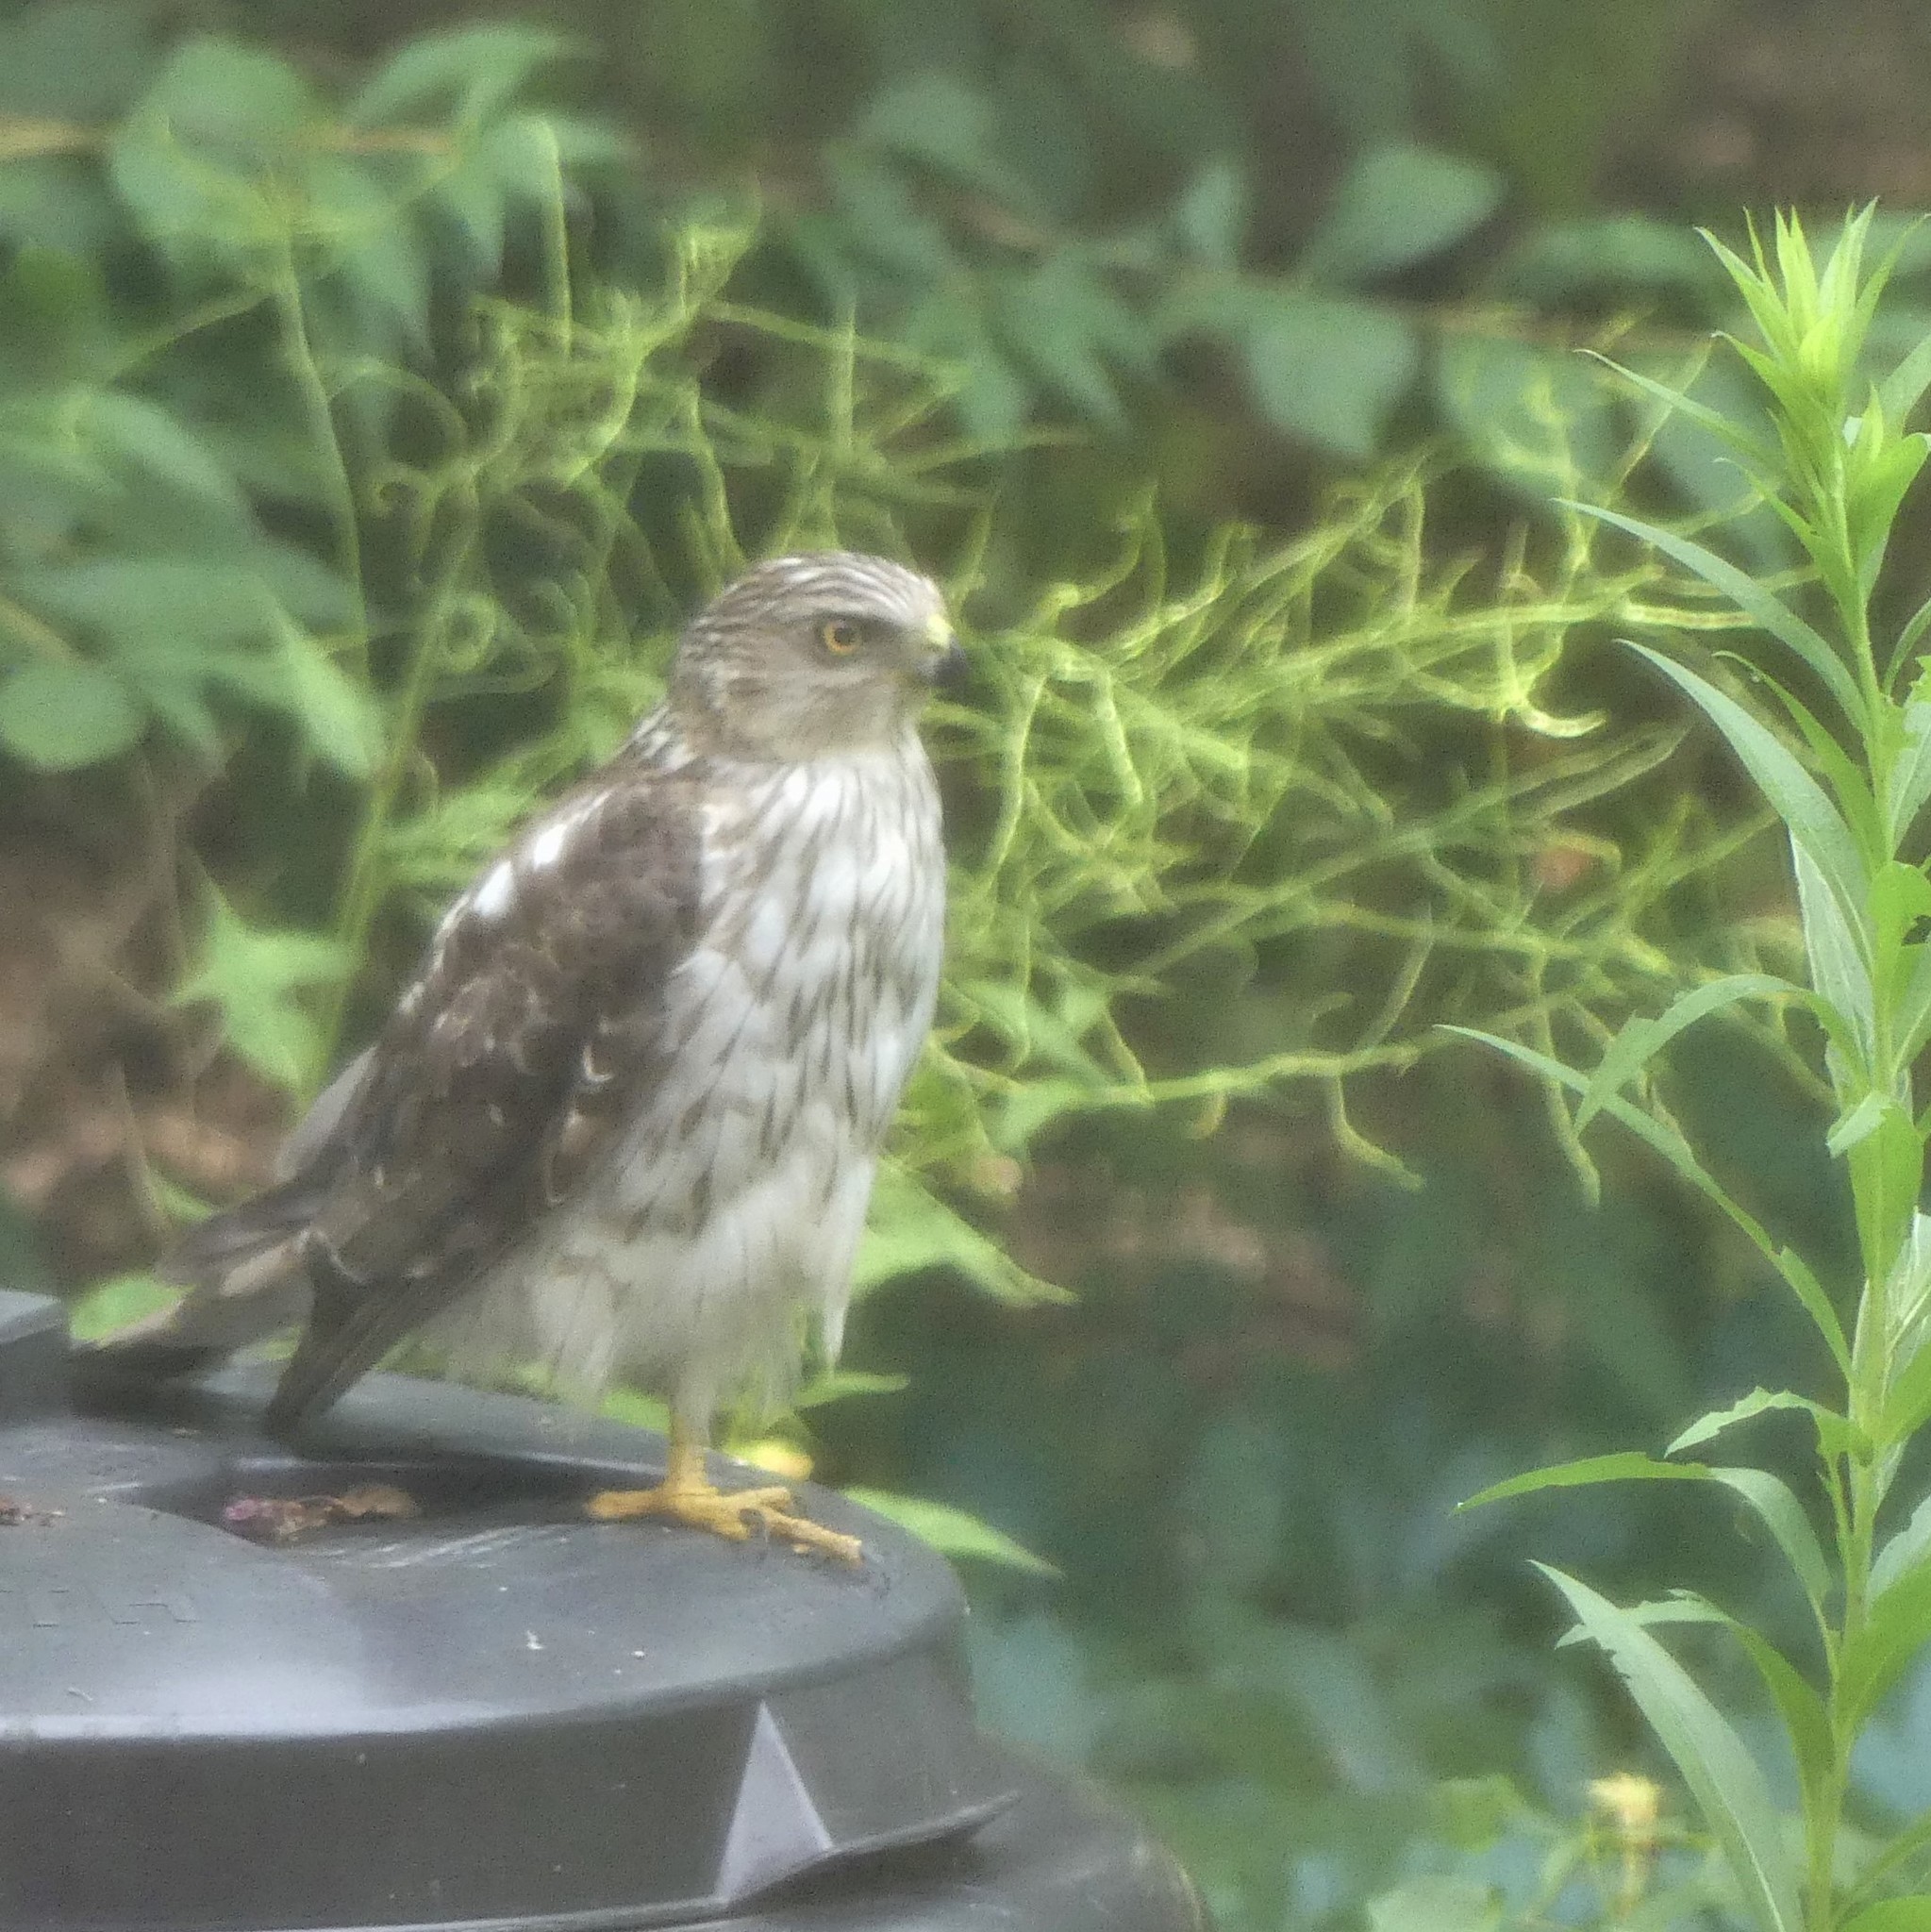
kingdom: Animalia
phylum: Chordata
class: Aves
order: Accipitriformes
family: Accipitridae
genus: Accipiter
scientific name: Accipiter cooperii
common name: Cooper's hawk
